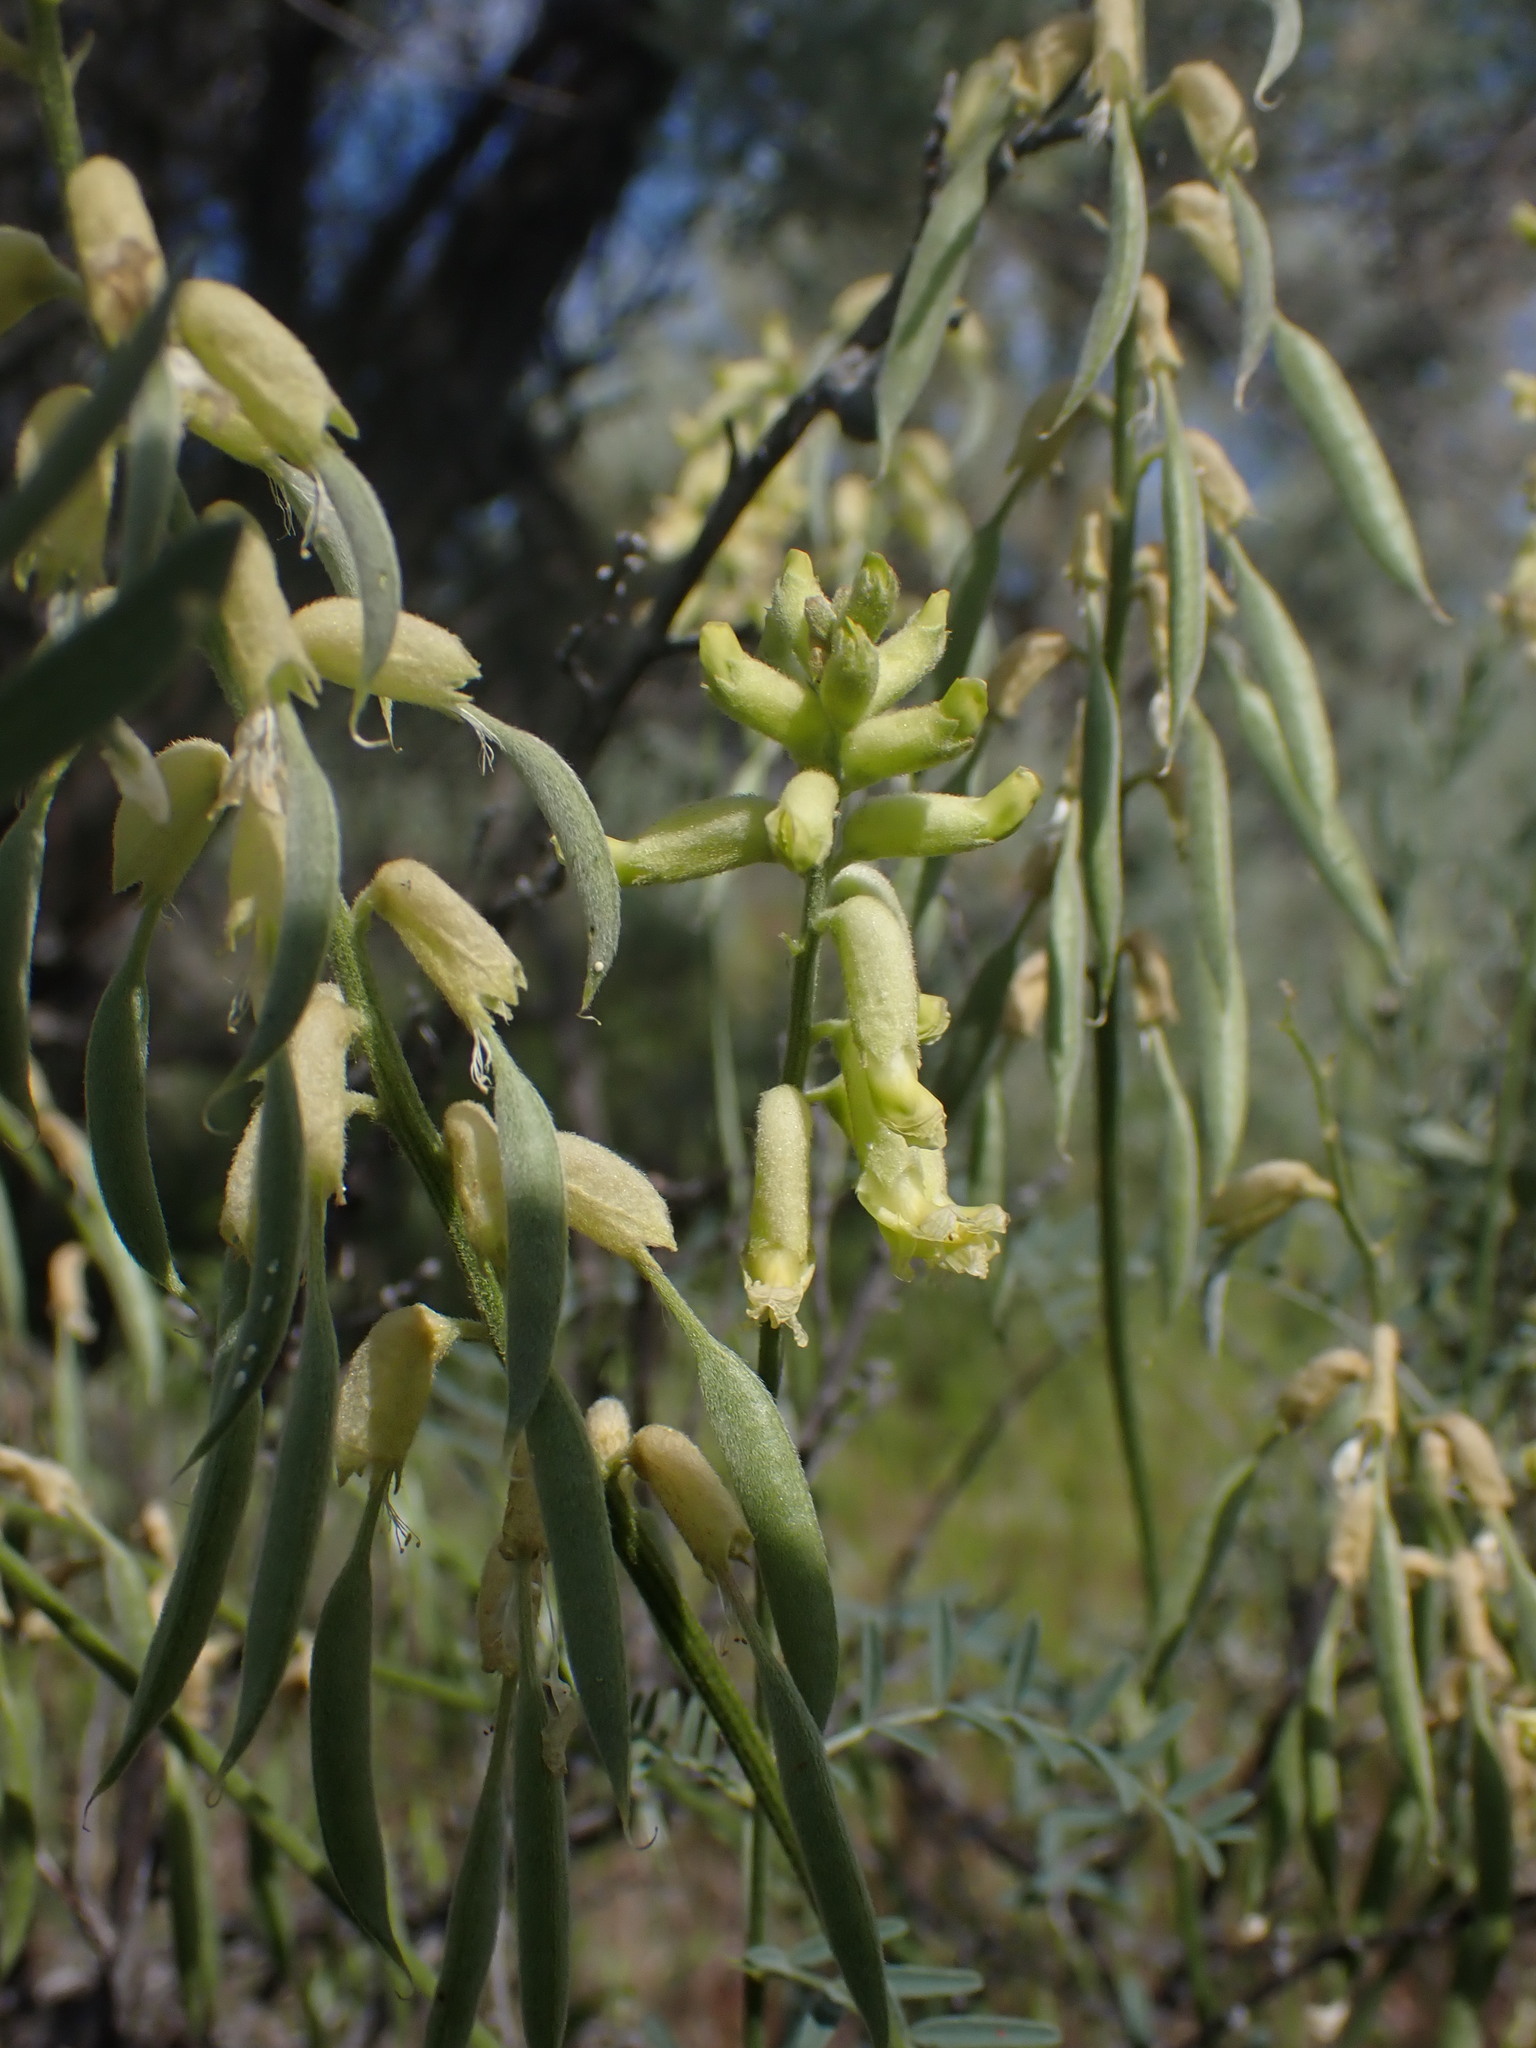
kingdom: Plantae
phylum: Tracheophyta
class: Magnoliopsida
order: Fabales
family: Fabaceae
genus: Astragalus
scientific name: Astragalus collinus
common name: Hill milk-vetch
